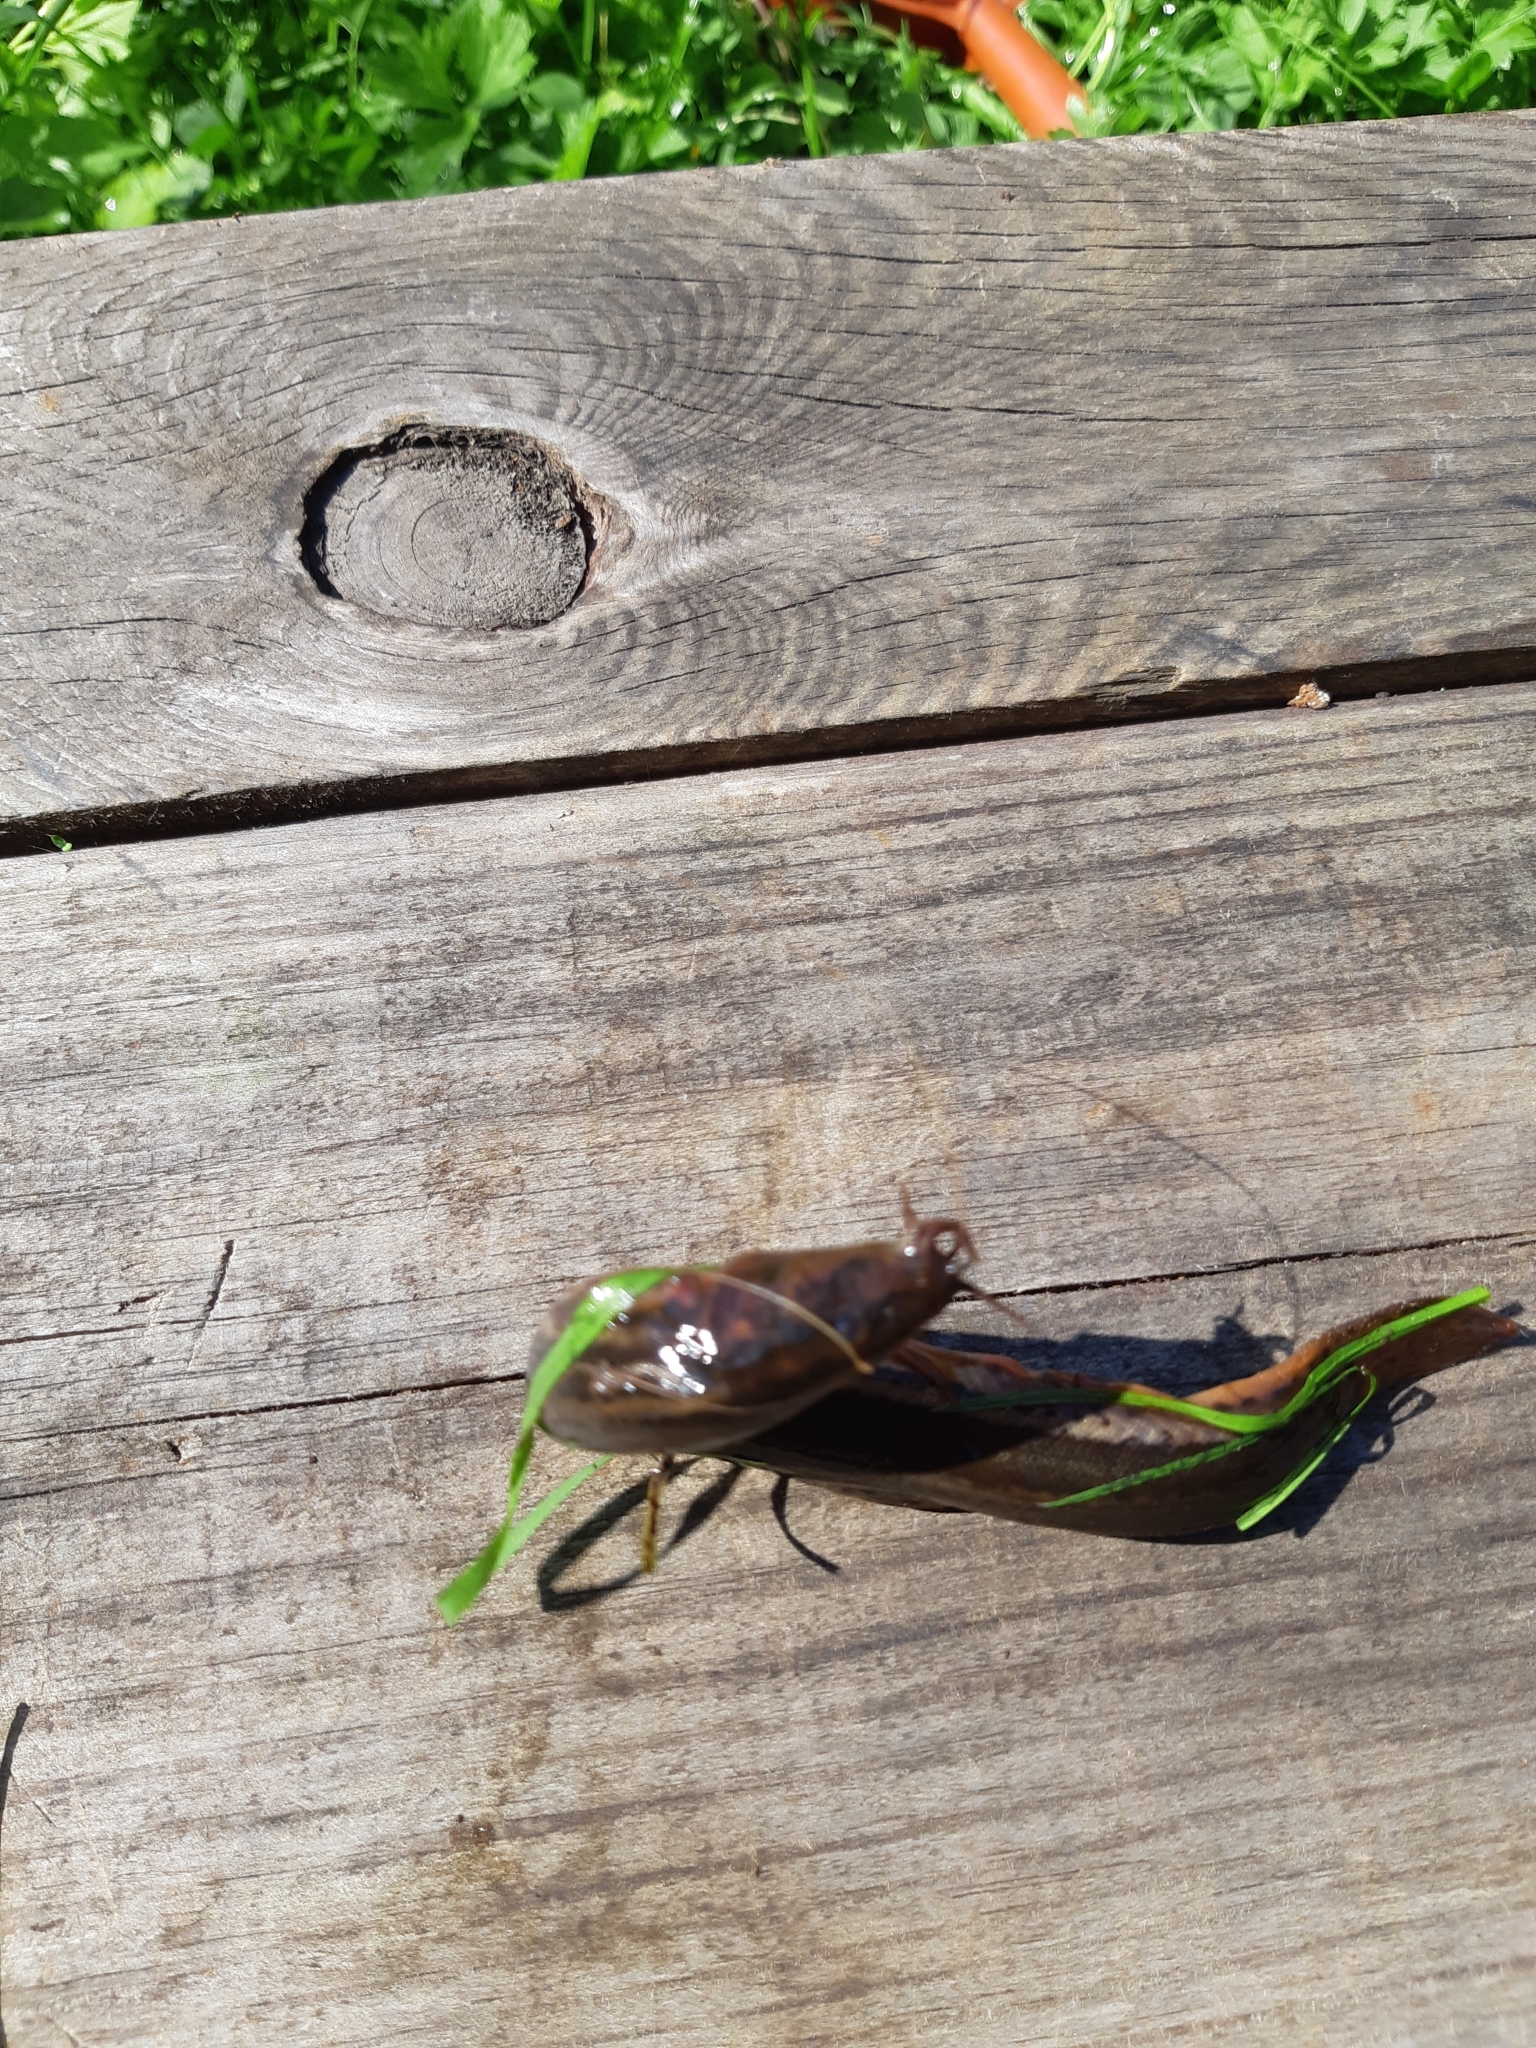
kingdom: Animalia
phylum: Chordata
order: Cypriniformes
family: Cobitidae
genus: Misgurnus
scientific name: Misgurnus fossilis
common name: Weatherfish
